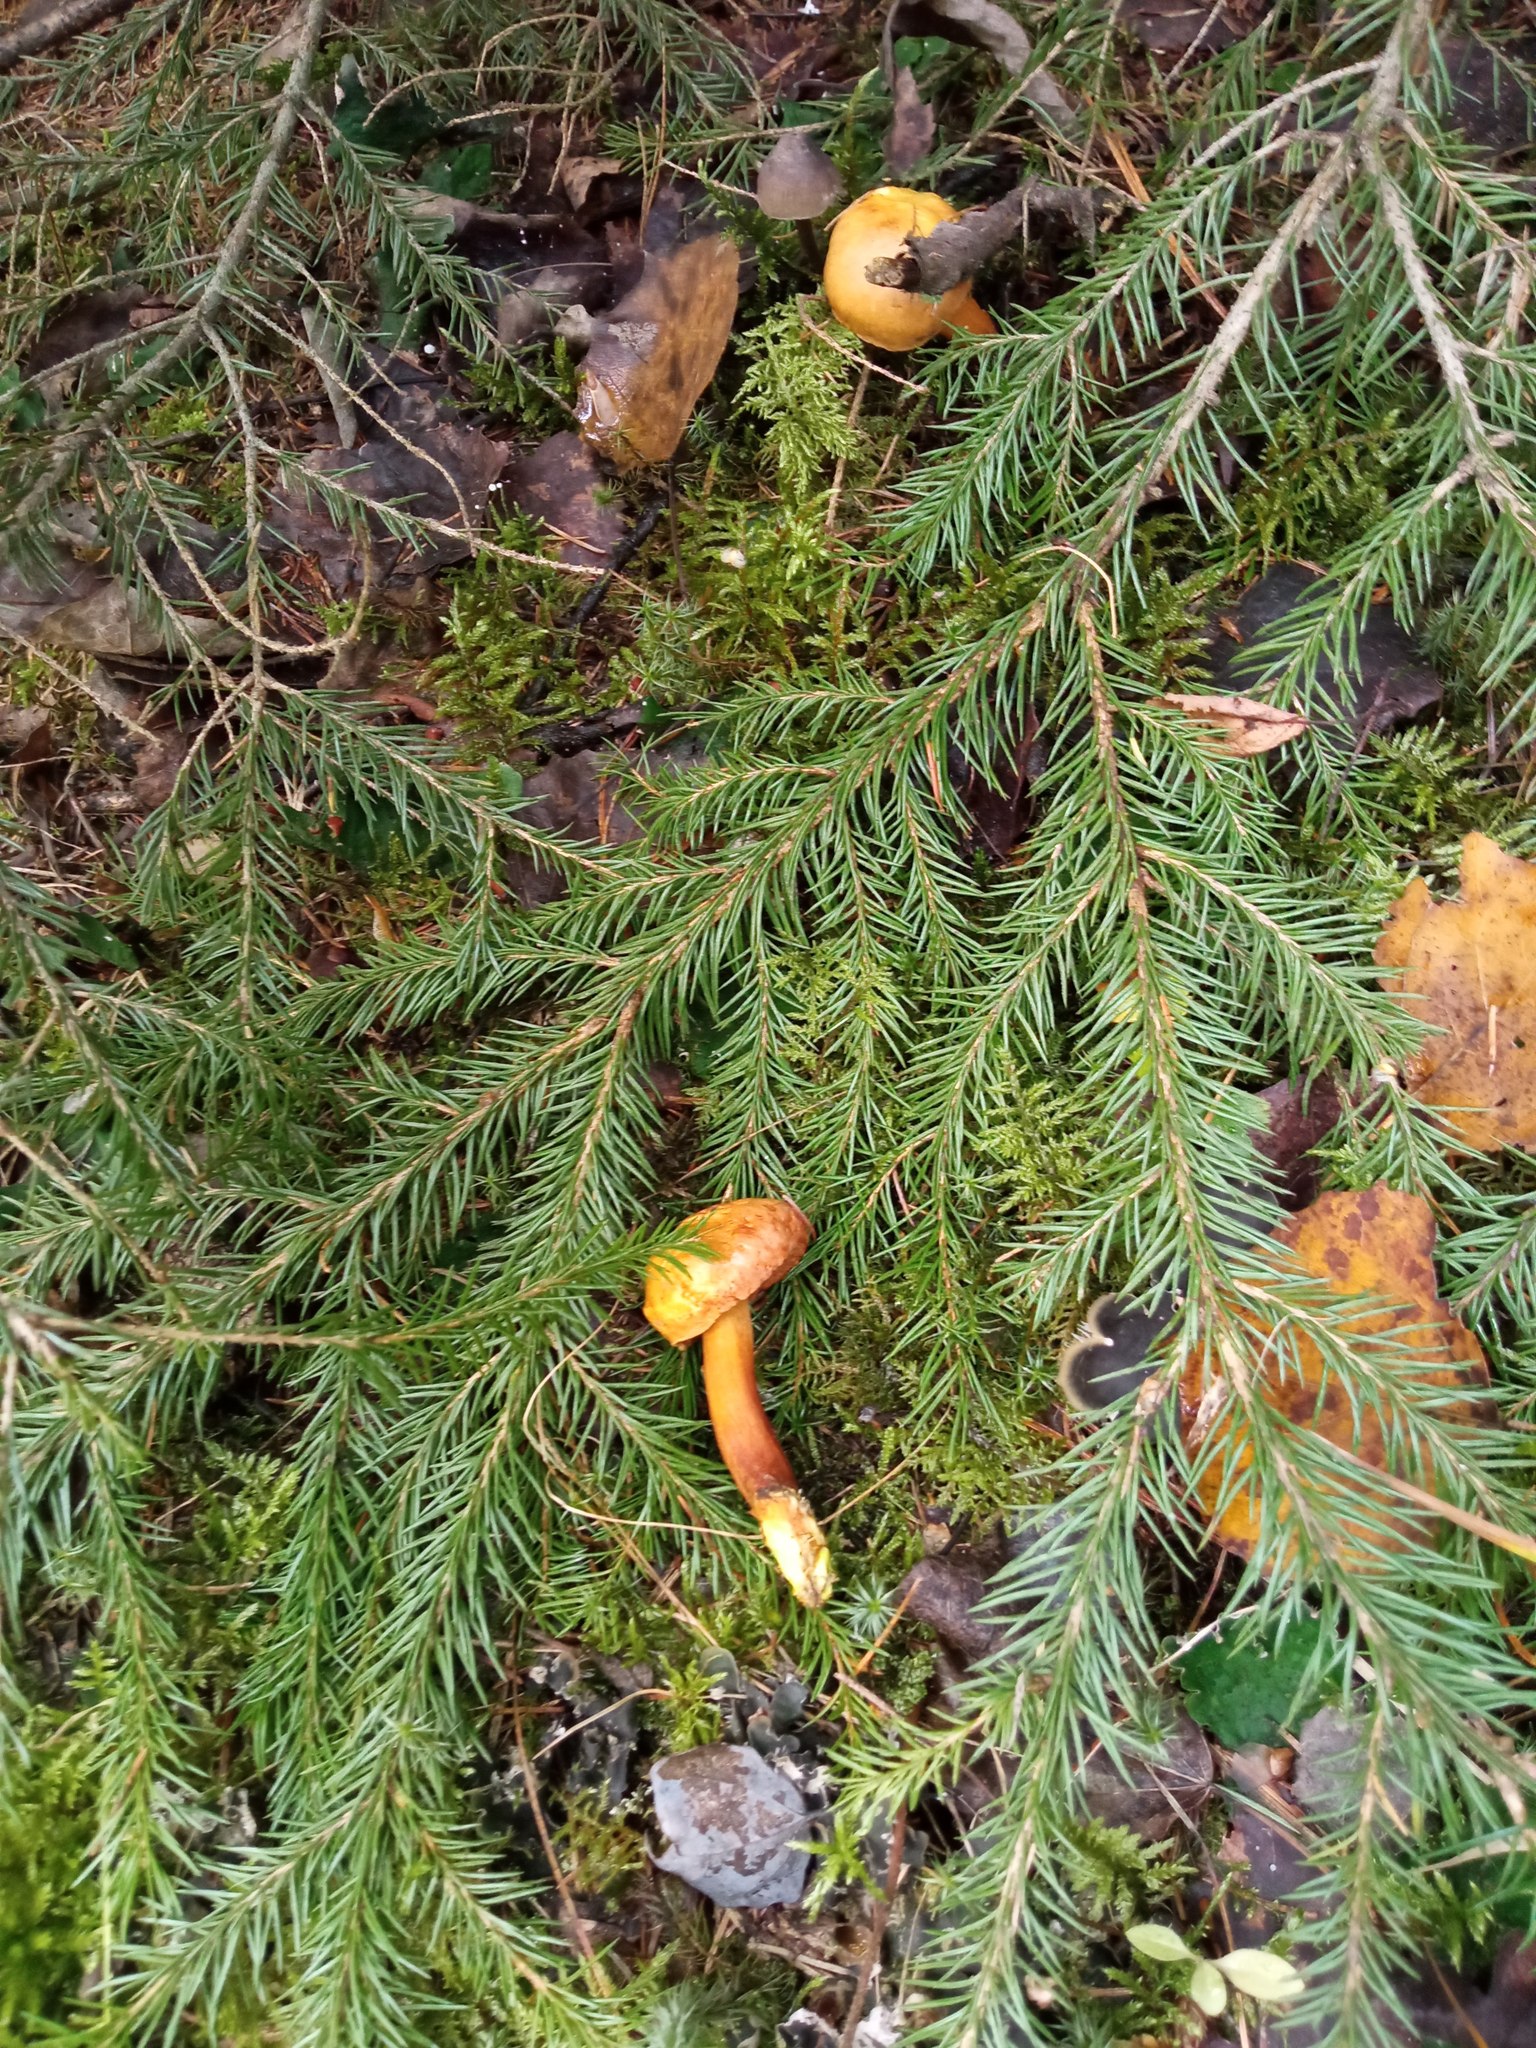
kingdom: Fungi
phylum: Basidiomycota
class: Agaricomycetes
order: Boletales
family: Boletaceae
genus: Chalciporus
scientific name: Chalciporus piperatus
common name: Peppery bolete
